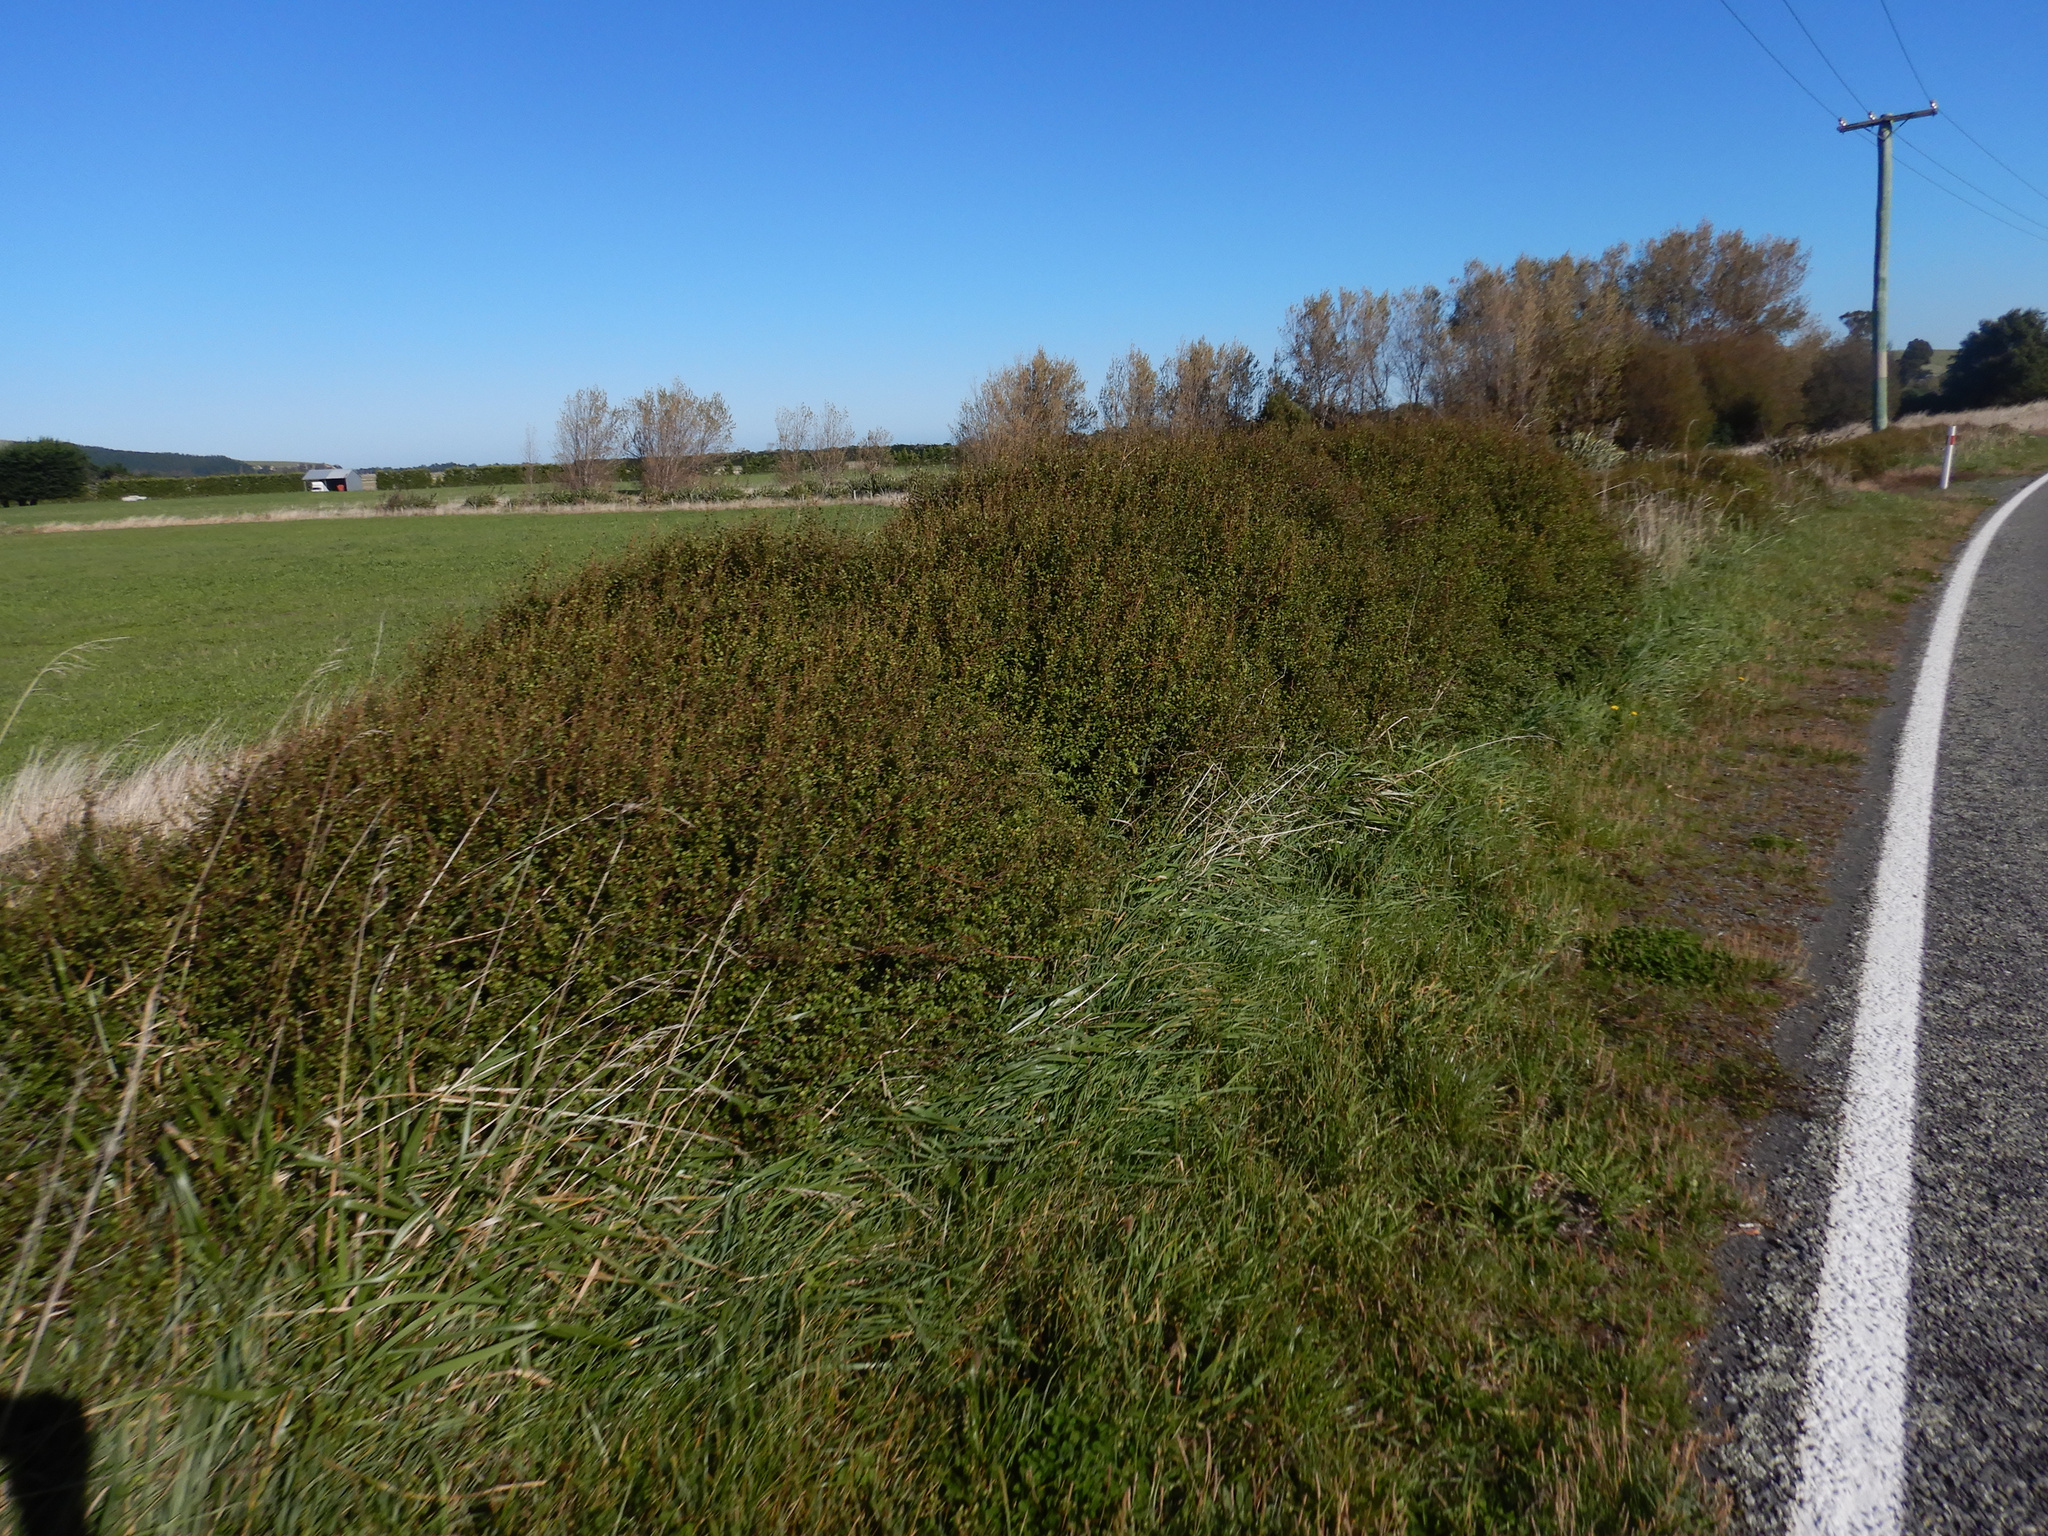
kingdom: Plantae
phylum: Tracheophyta
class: Magnoliopsida
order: Caryophyllales
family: Polygonaceae
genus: Muehlenbeckia
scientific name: Muehlenbeckia complexa
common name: Wireplant
